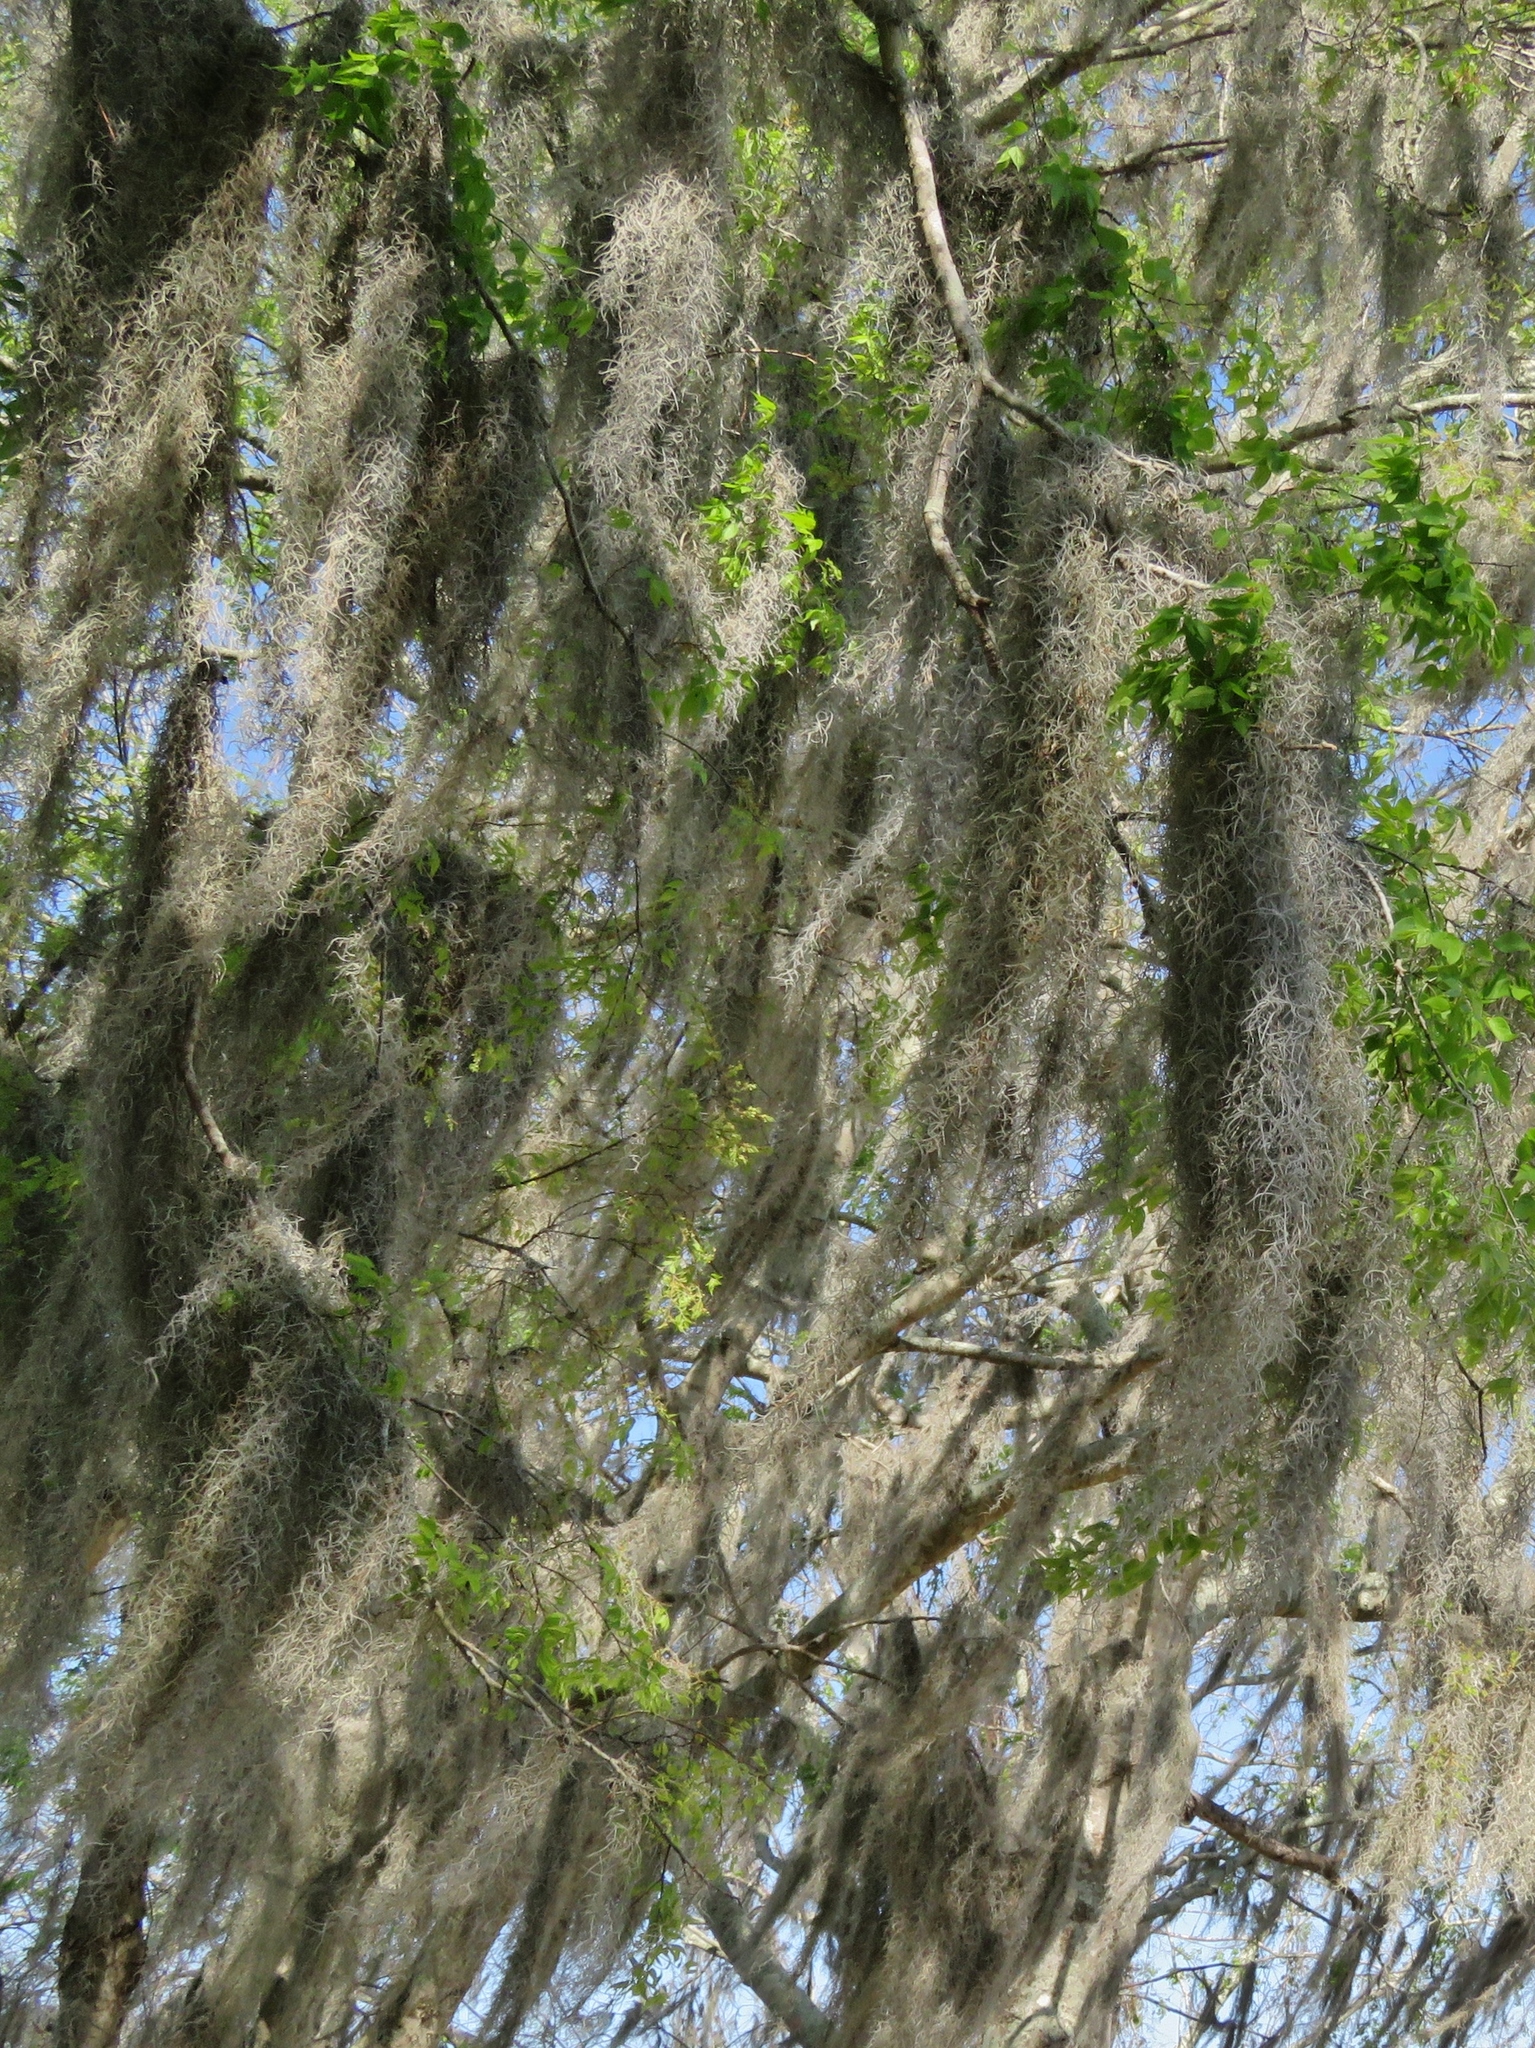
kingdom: Plantae
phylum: Tracheophyta
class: Liliopsida
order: Poales
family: Bromeliaceae
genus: Tillandsia
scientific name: Tillandsia usneoides
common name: Spanish moss
